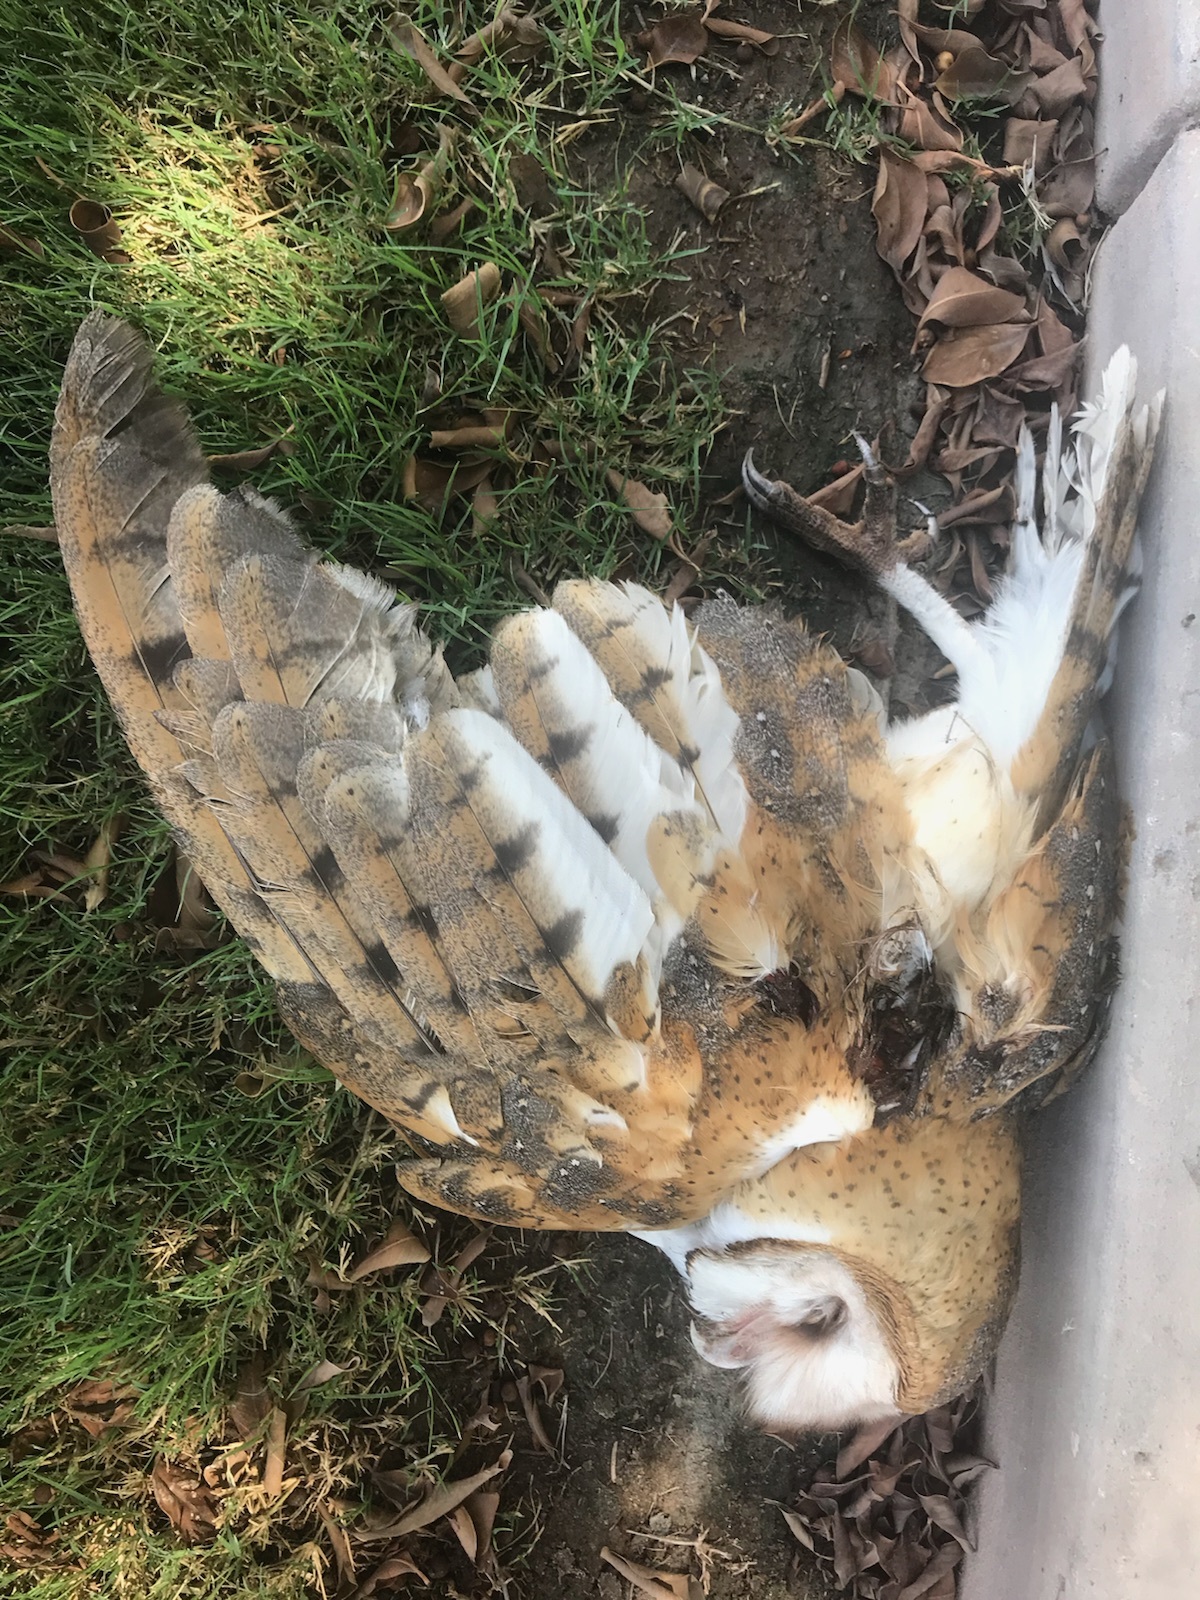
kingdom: Animalia
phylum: Chordata
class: Aves
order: Strigiformes
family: Tytonidae
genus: Tyto
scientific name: Tyto alba
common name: Barn owl
